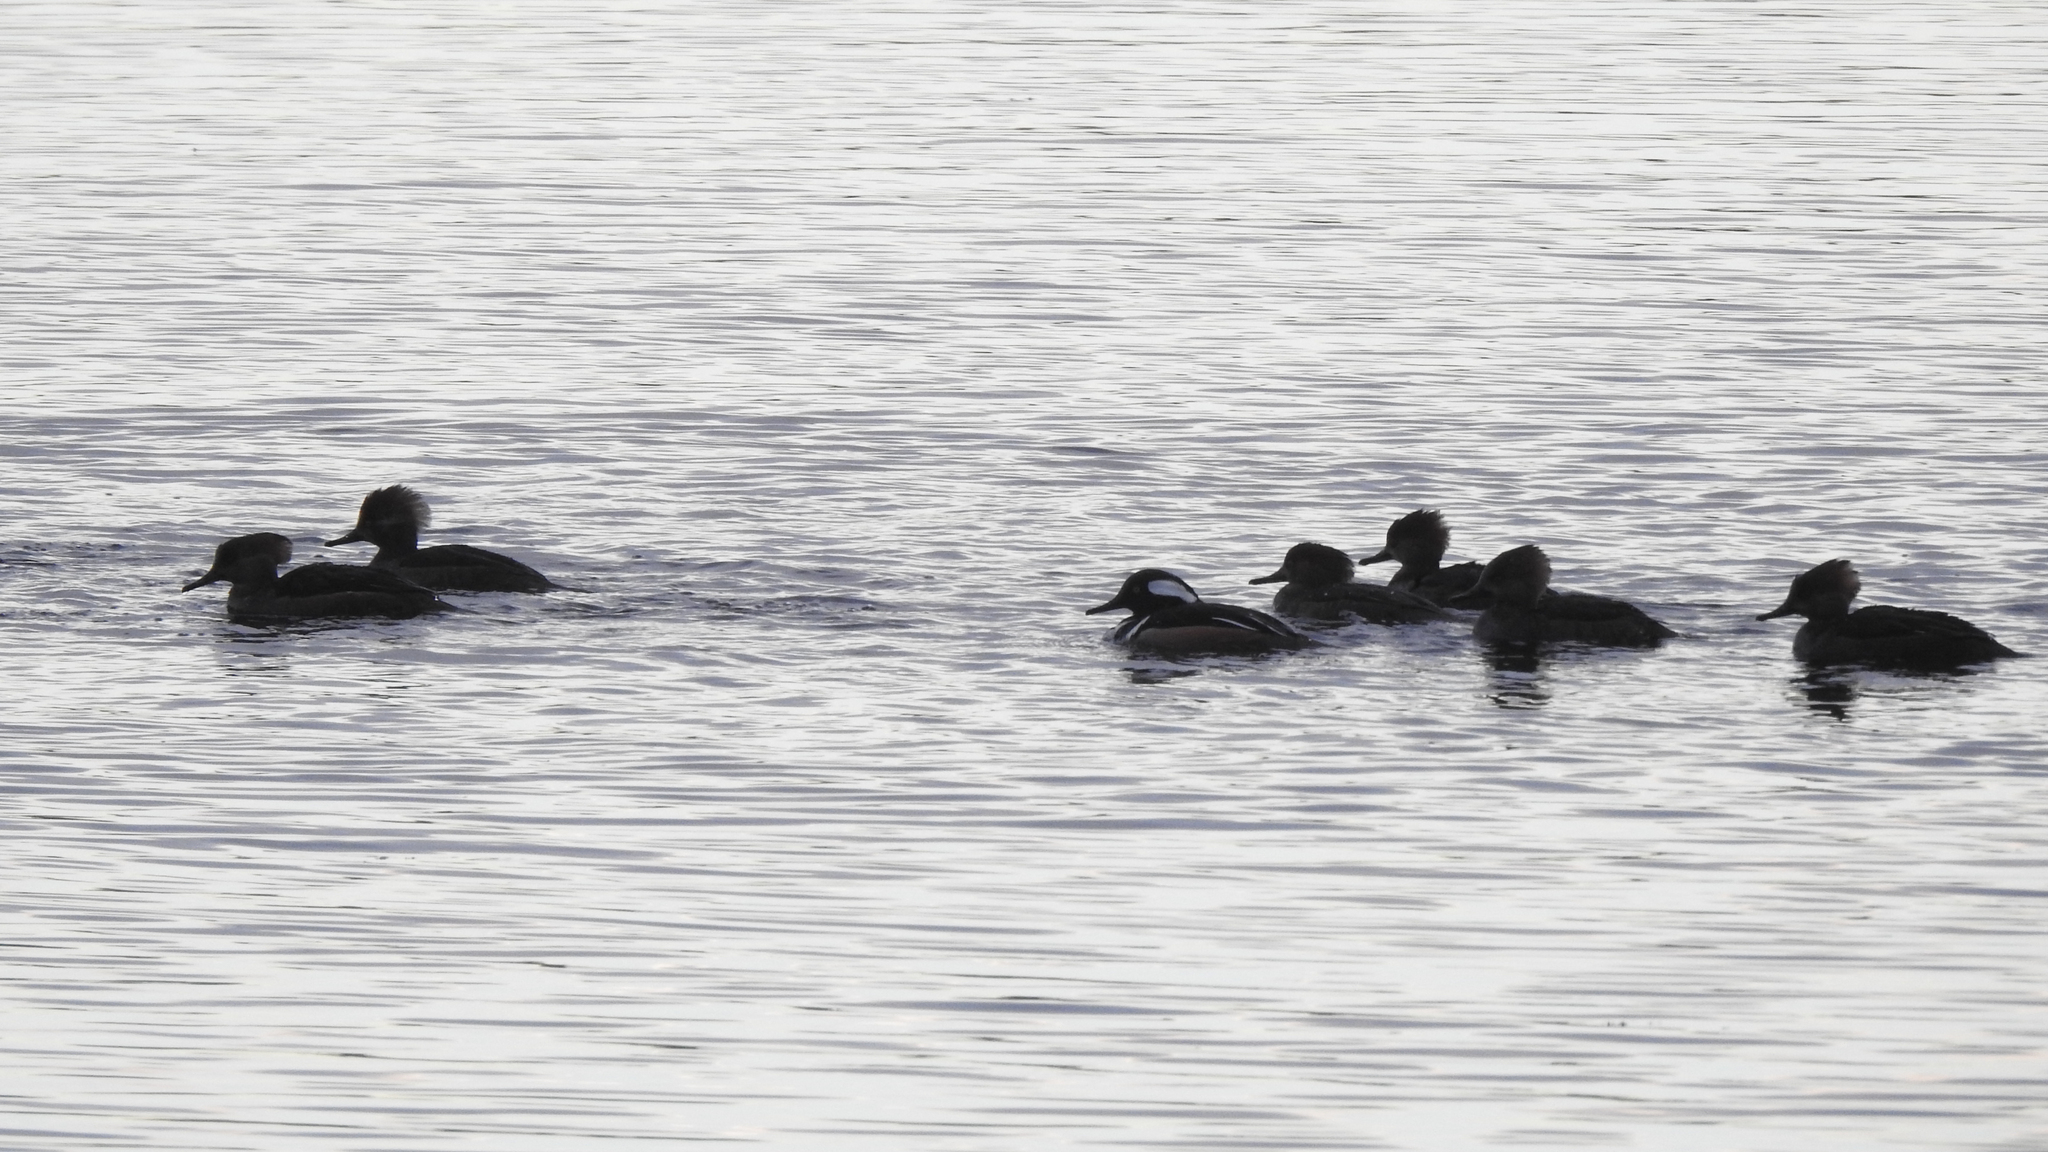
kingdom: Animalia
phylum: Chordata
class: Aves
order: Anseriformes
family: Anatidae
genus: Lophodytes
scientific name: Lophodytes cucullatus
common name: Hooded merganser
